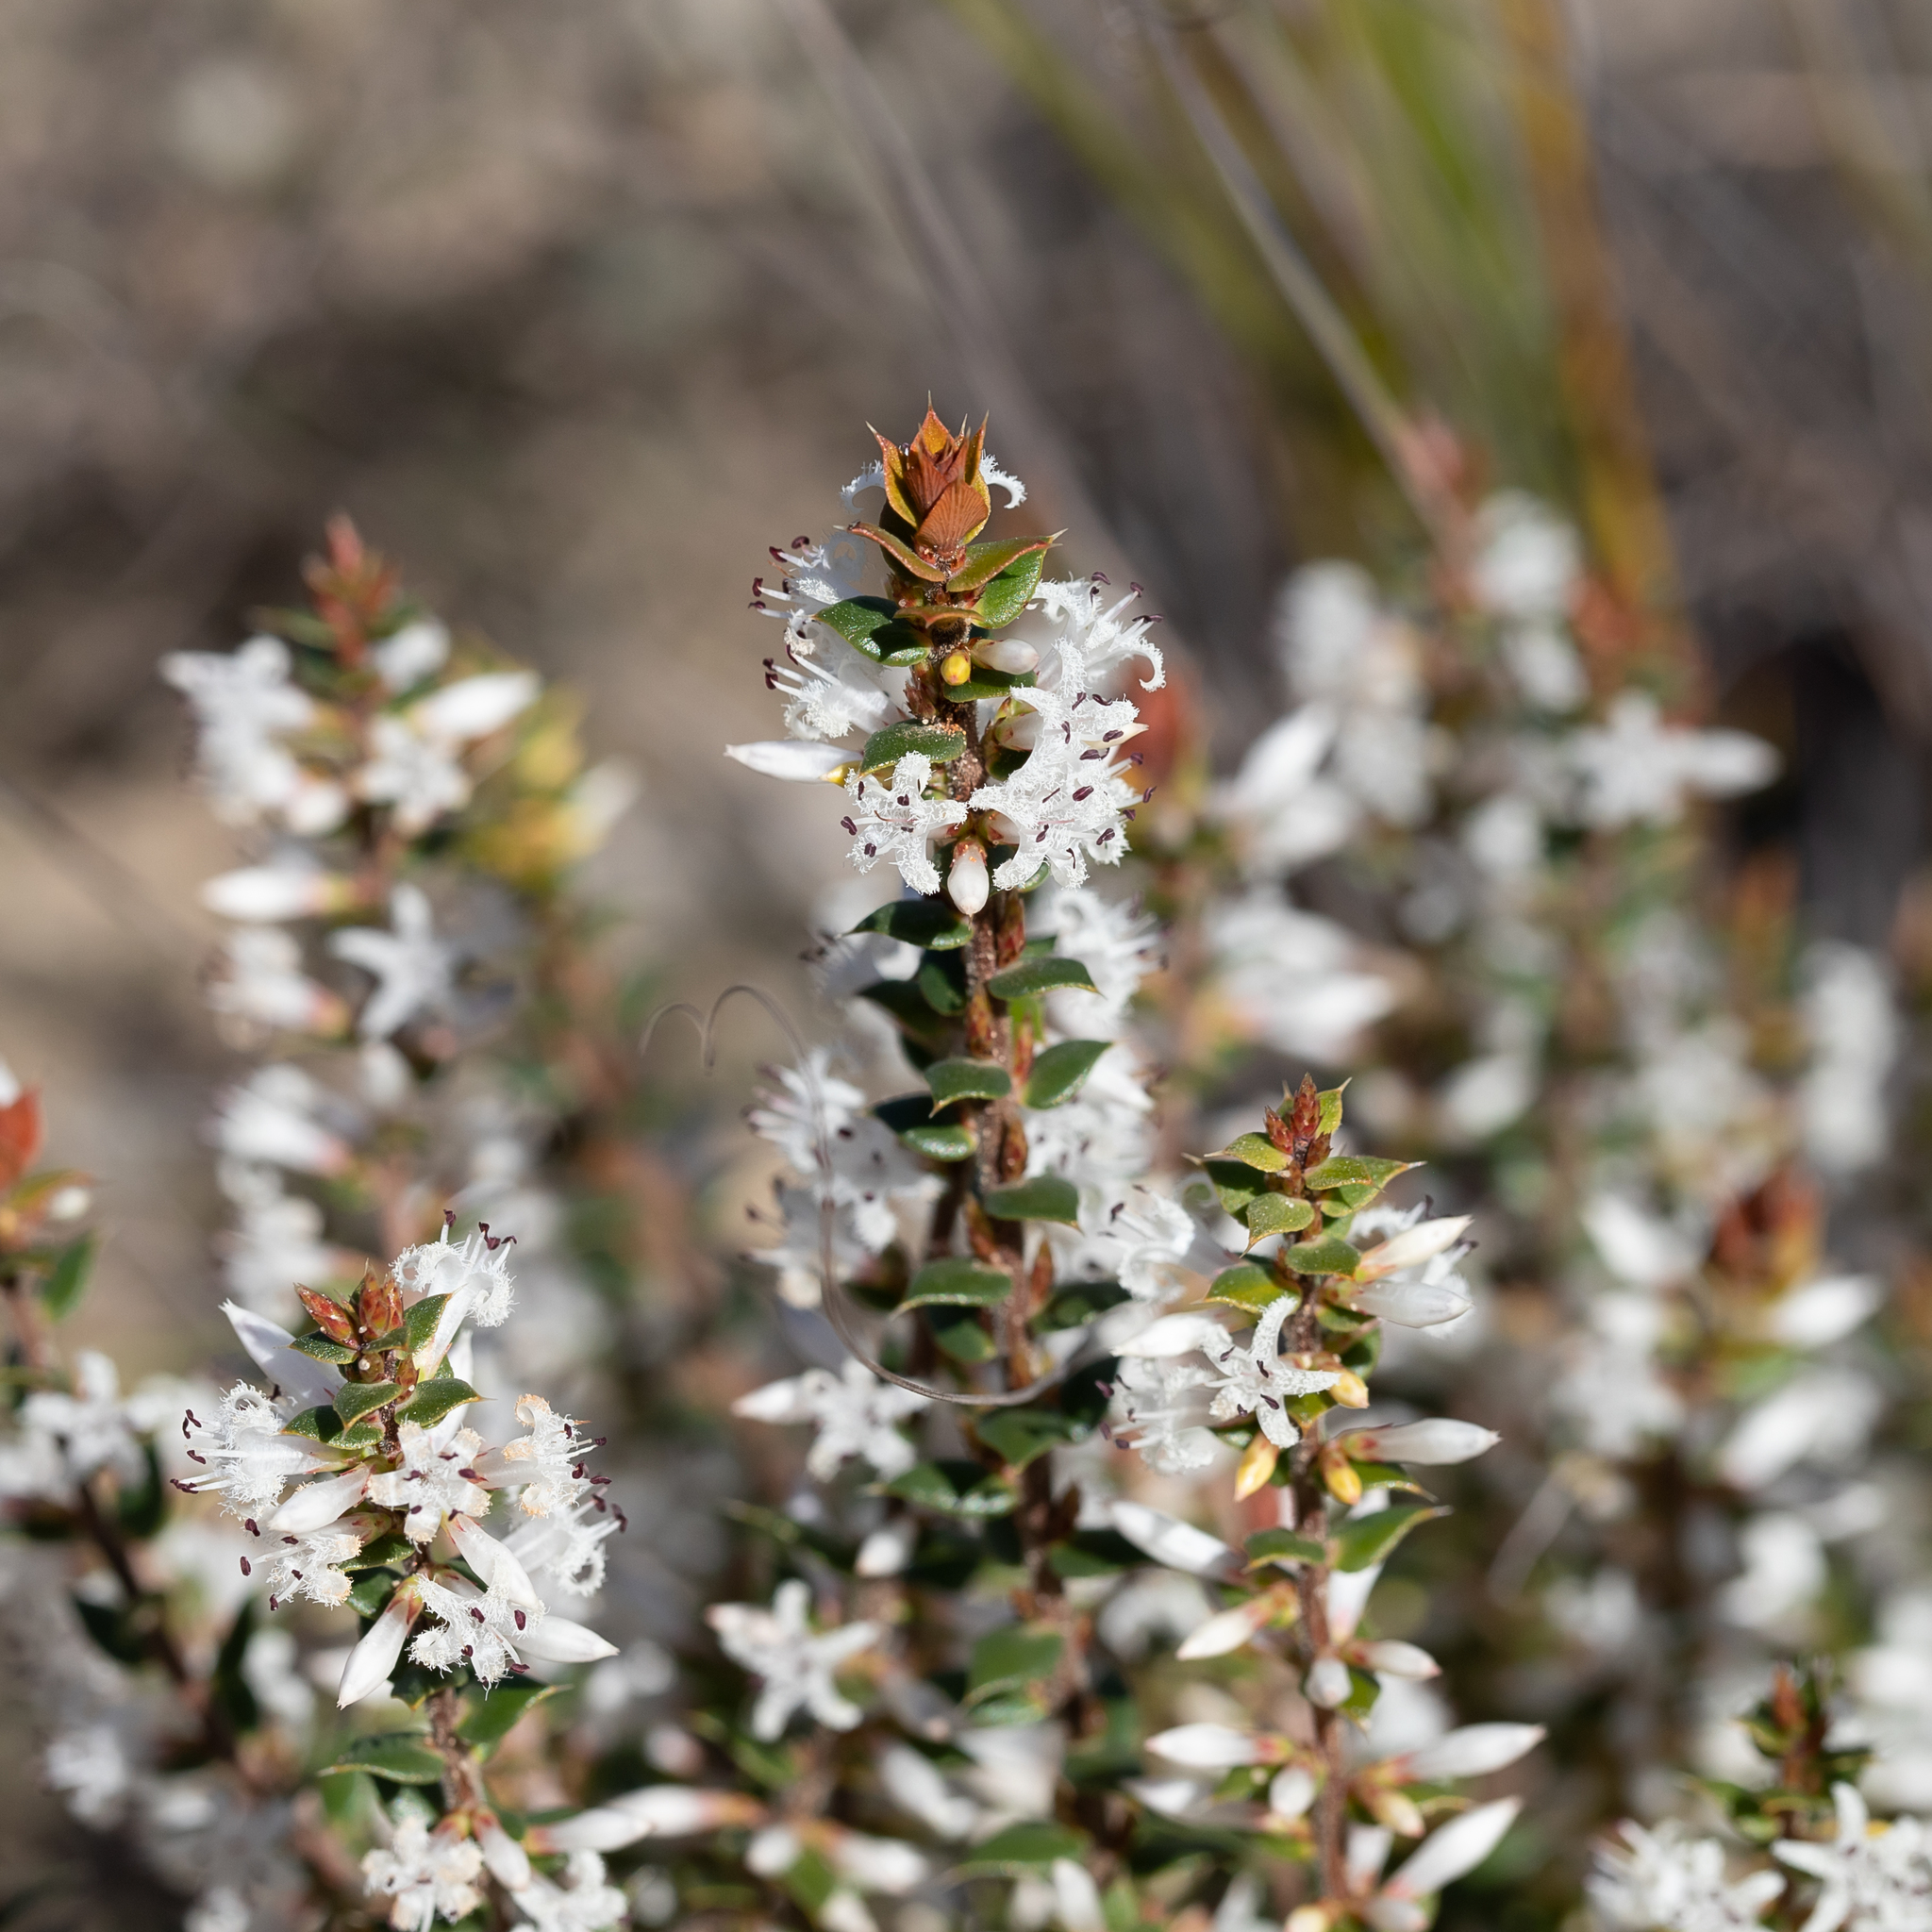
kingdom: Plantae
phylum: Tracheophyta
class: Magnoliopsida
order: Ericales
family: Ericaceae
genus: Styphelia
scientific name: Styphelia exarrhena
